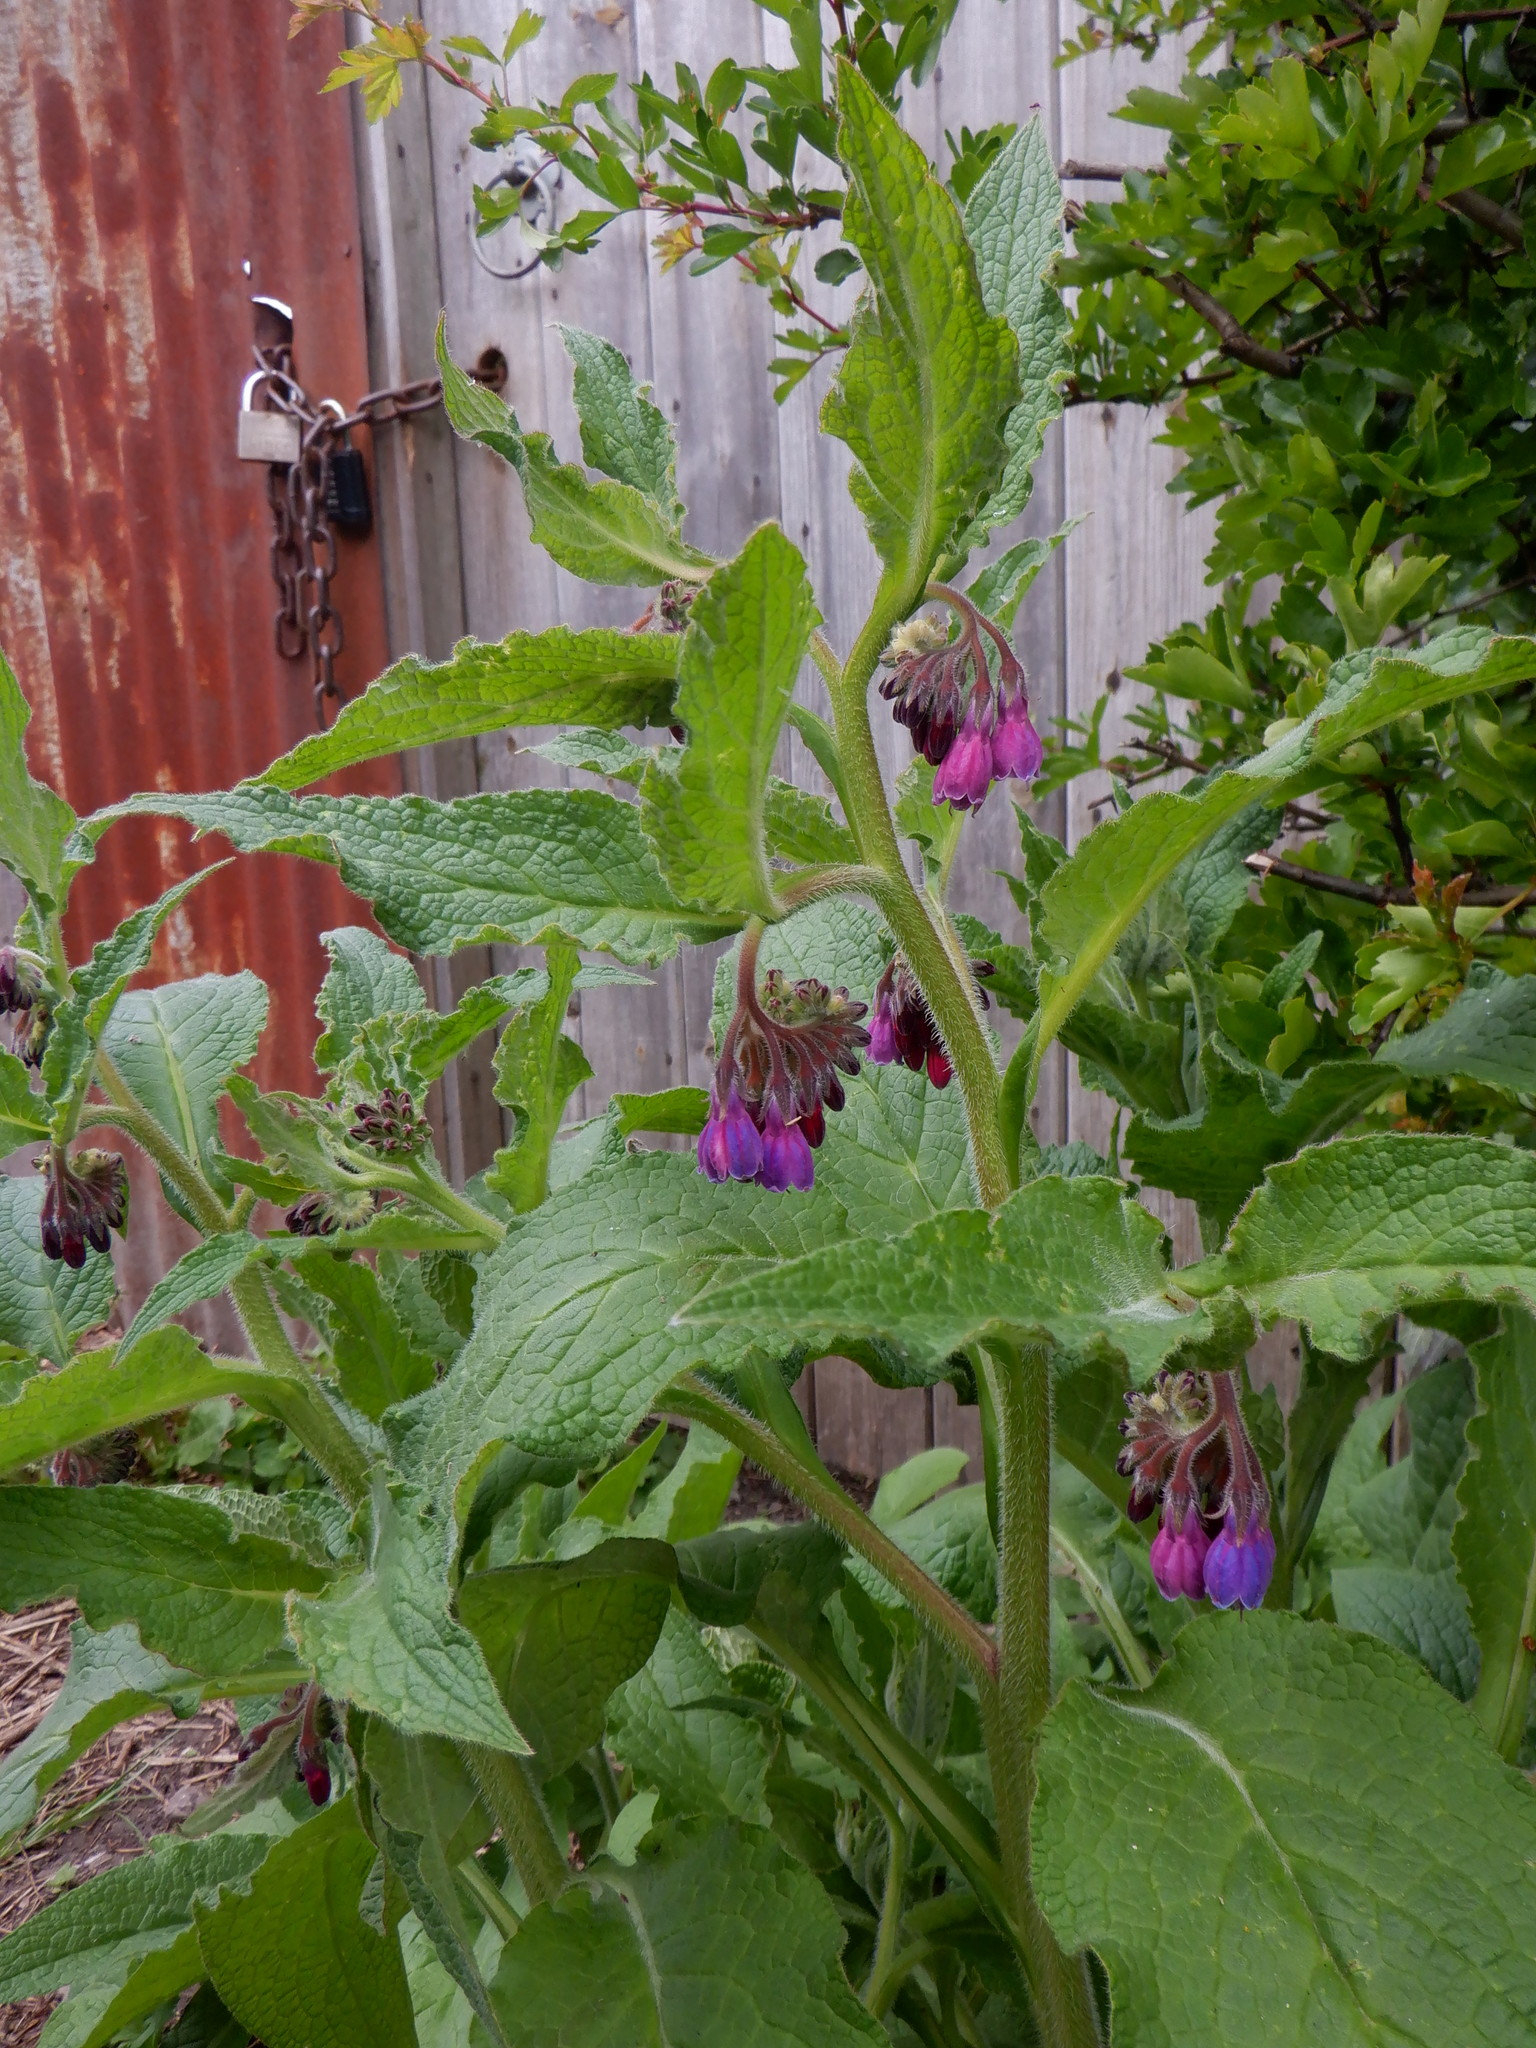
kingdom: Plantae
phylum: Tracheophyta
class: Magnoliopsida
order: Boraginales
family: Boraginaceae
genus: Symphytum
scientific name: Symphytum uplandicum
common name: Russian comfrey
